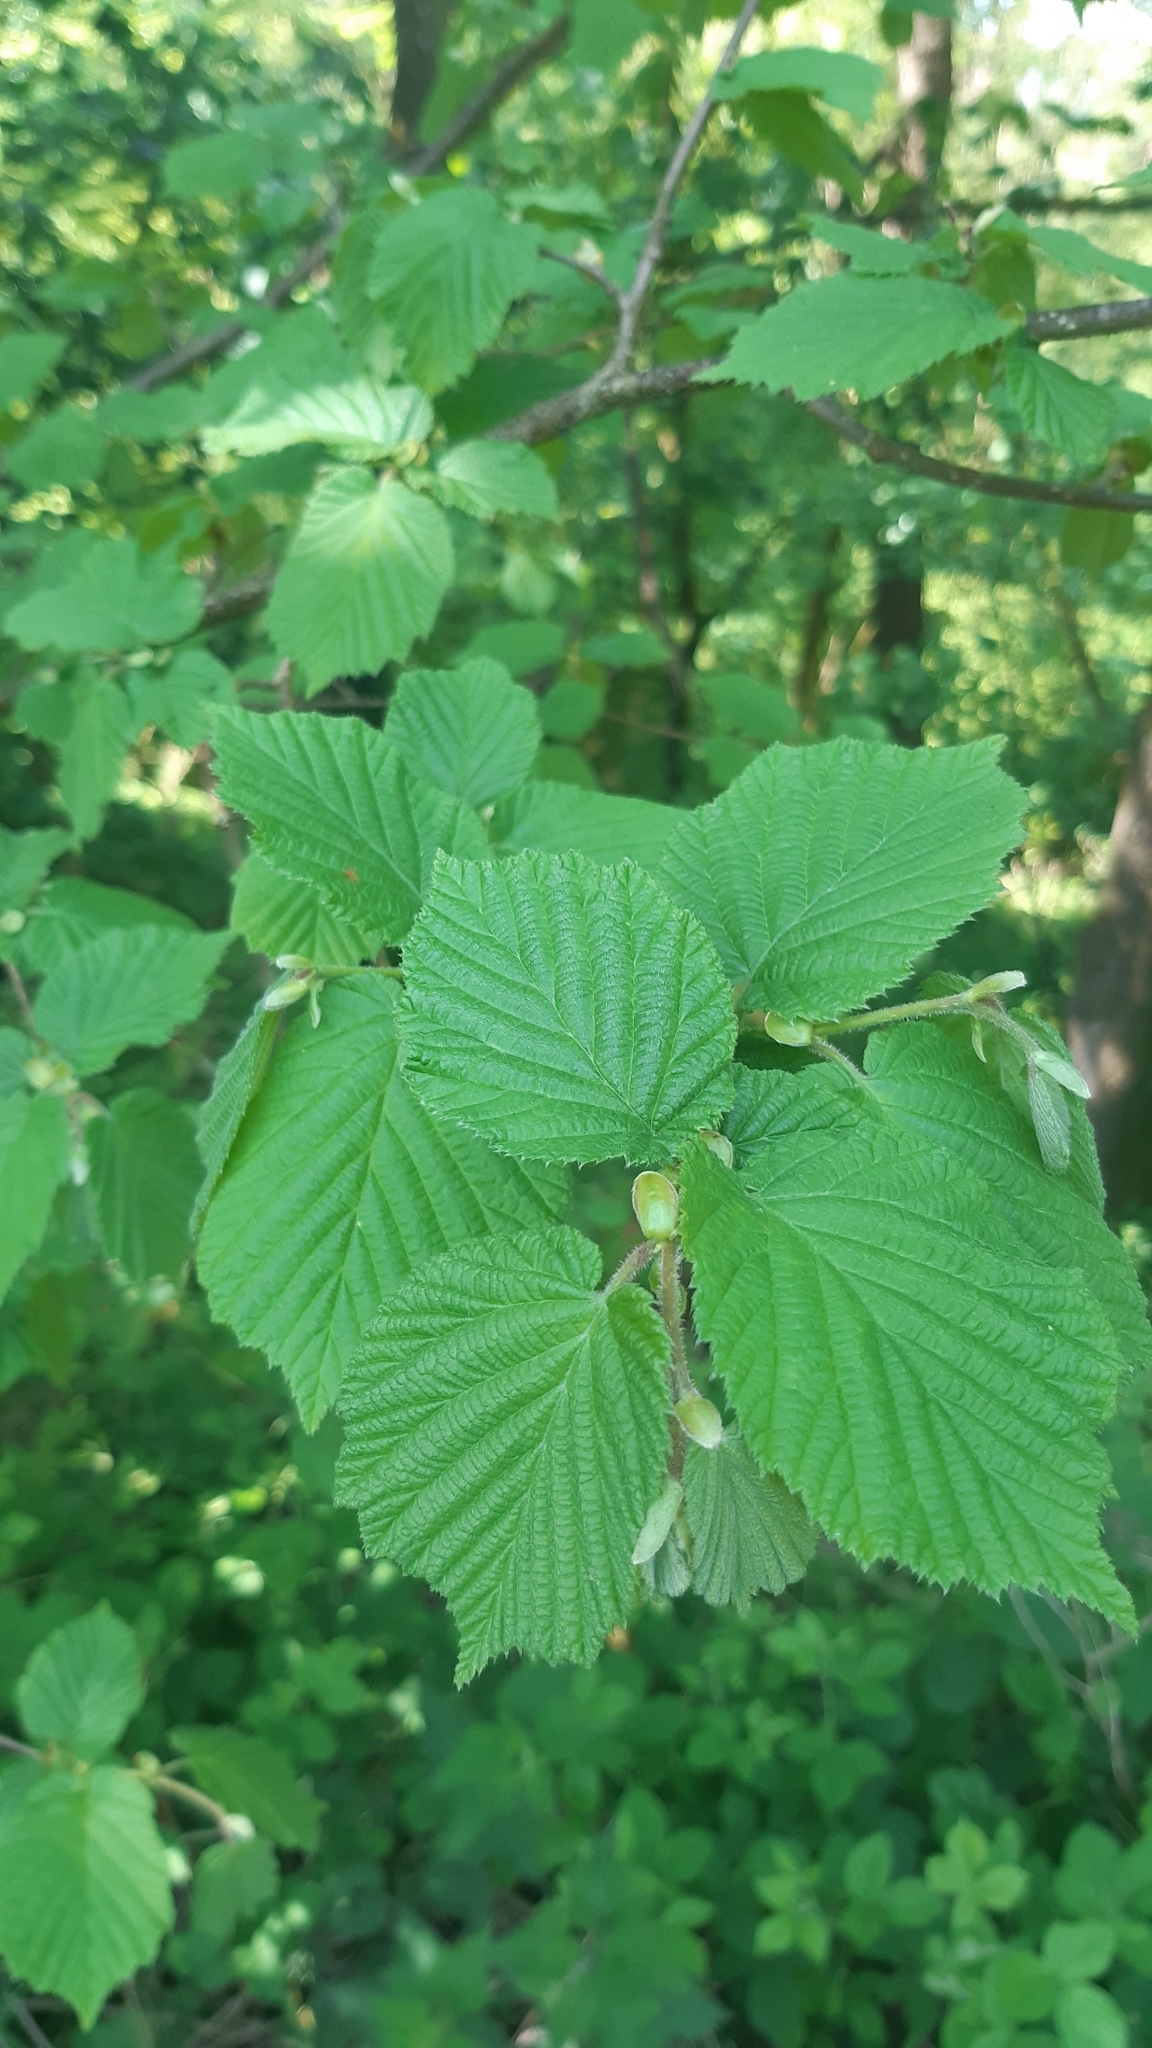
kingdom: Plantae
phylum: Tracheophyta
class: Magnoliopsida
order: Fagales
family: Betulaceae
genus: Corylus
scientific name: Corylus avellana
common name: European hazel
